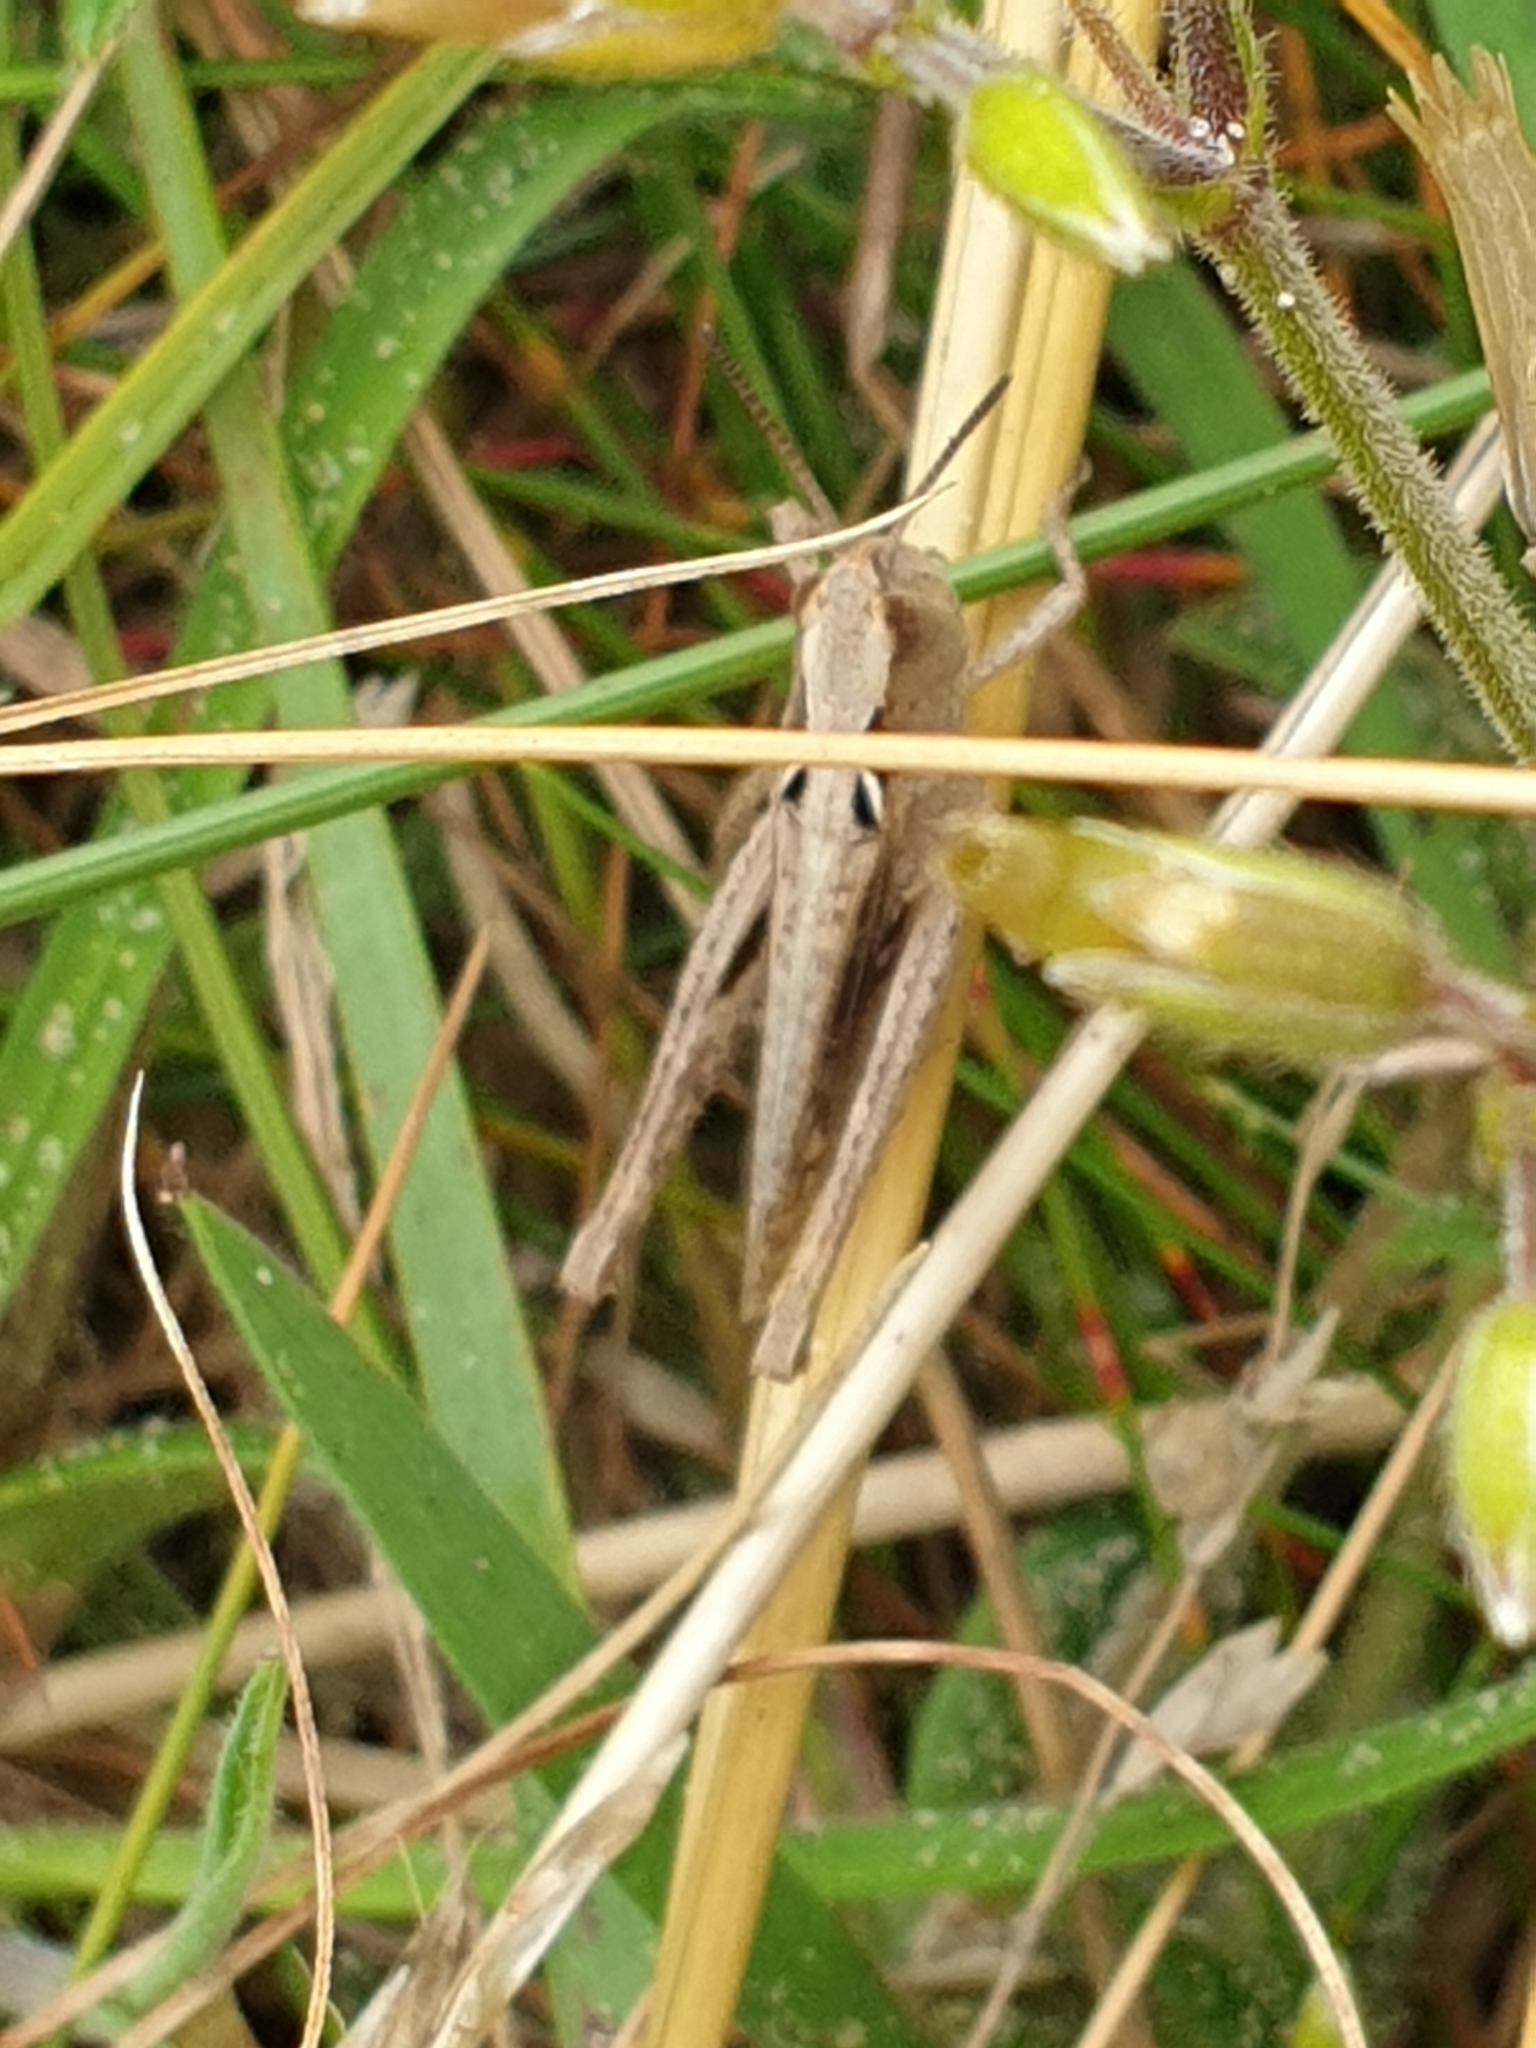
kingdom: Animalia
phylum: Arthropoda
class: Insecta
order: Orthoptera
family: Acrididae
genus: Chorthippus
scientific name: Chorthippus vagans
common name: Heath grasshopper
